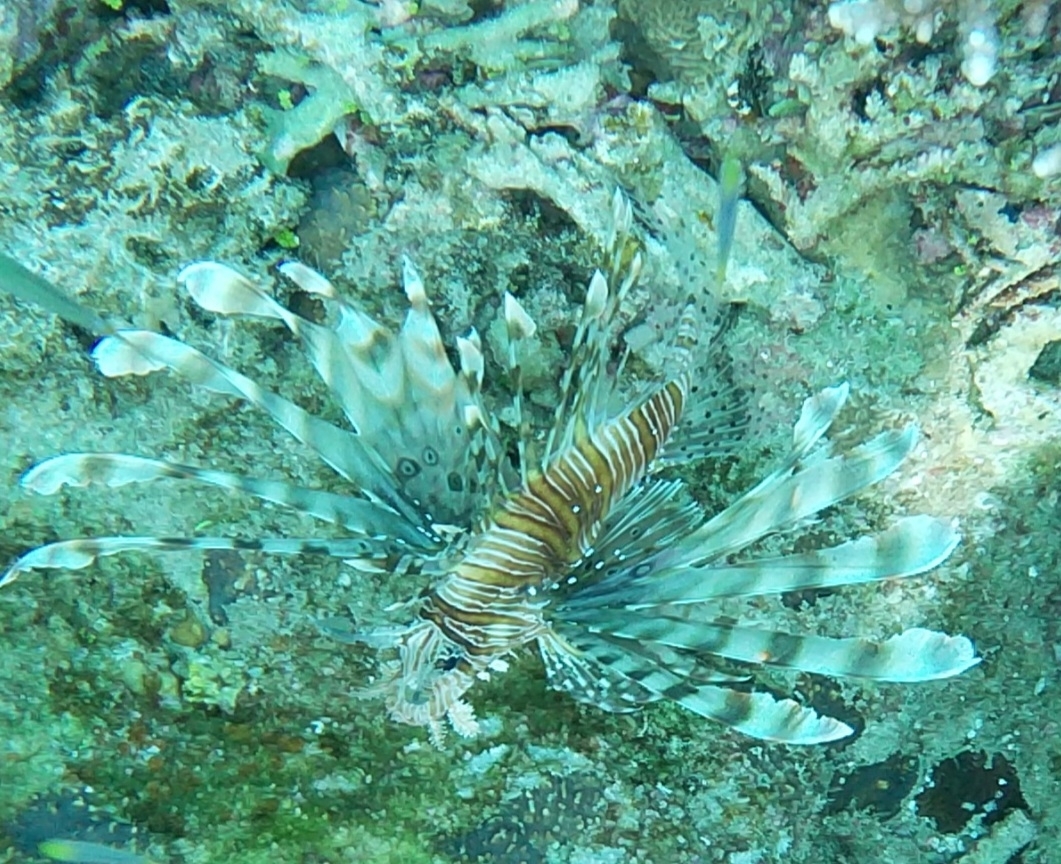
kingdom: Animalia
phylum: Chordata
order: Scorpaeniformes
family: Scorpaenidae
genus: Pterois
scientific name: Pterois miles
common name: Devil firefish
